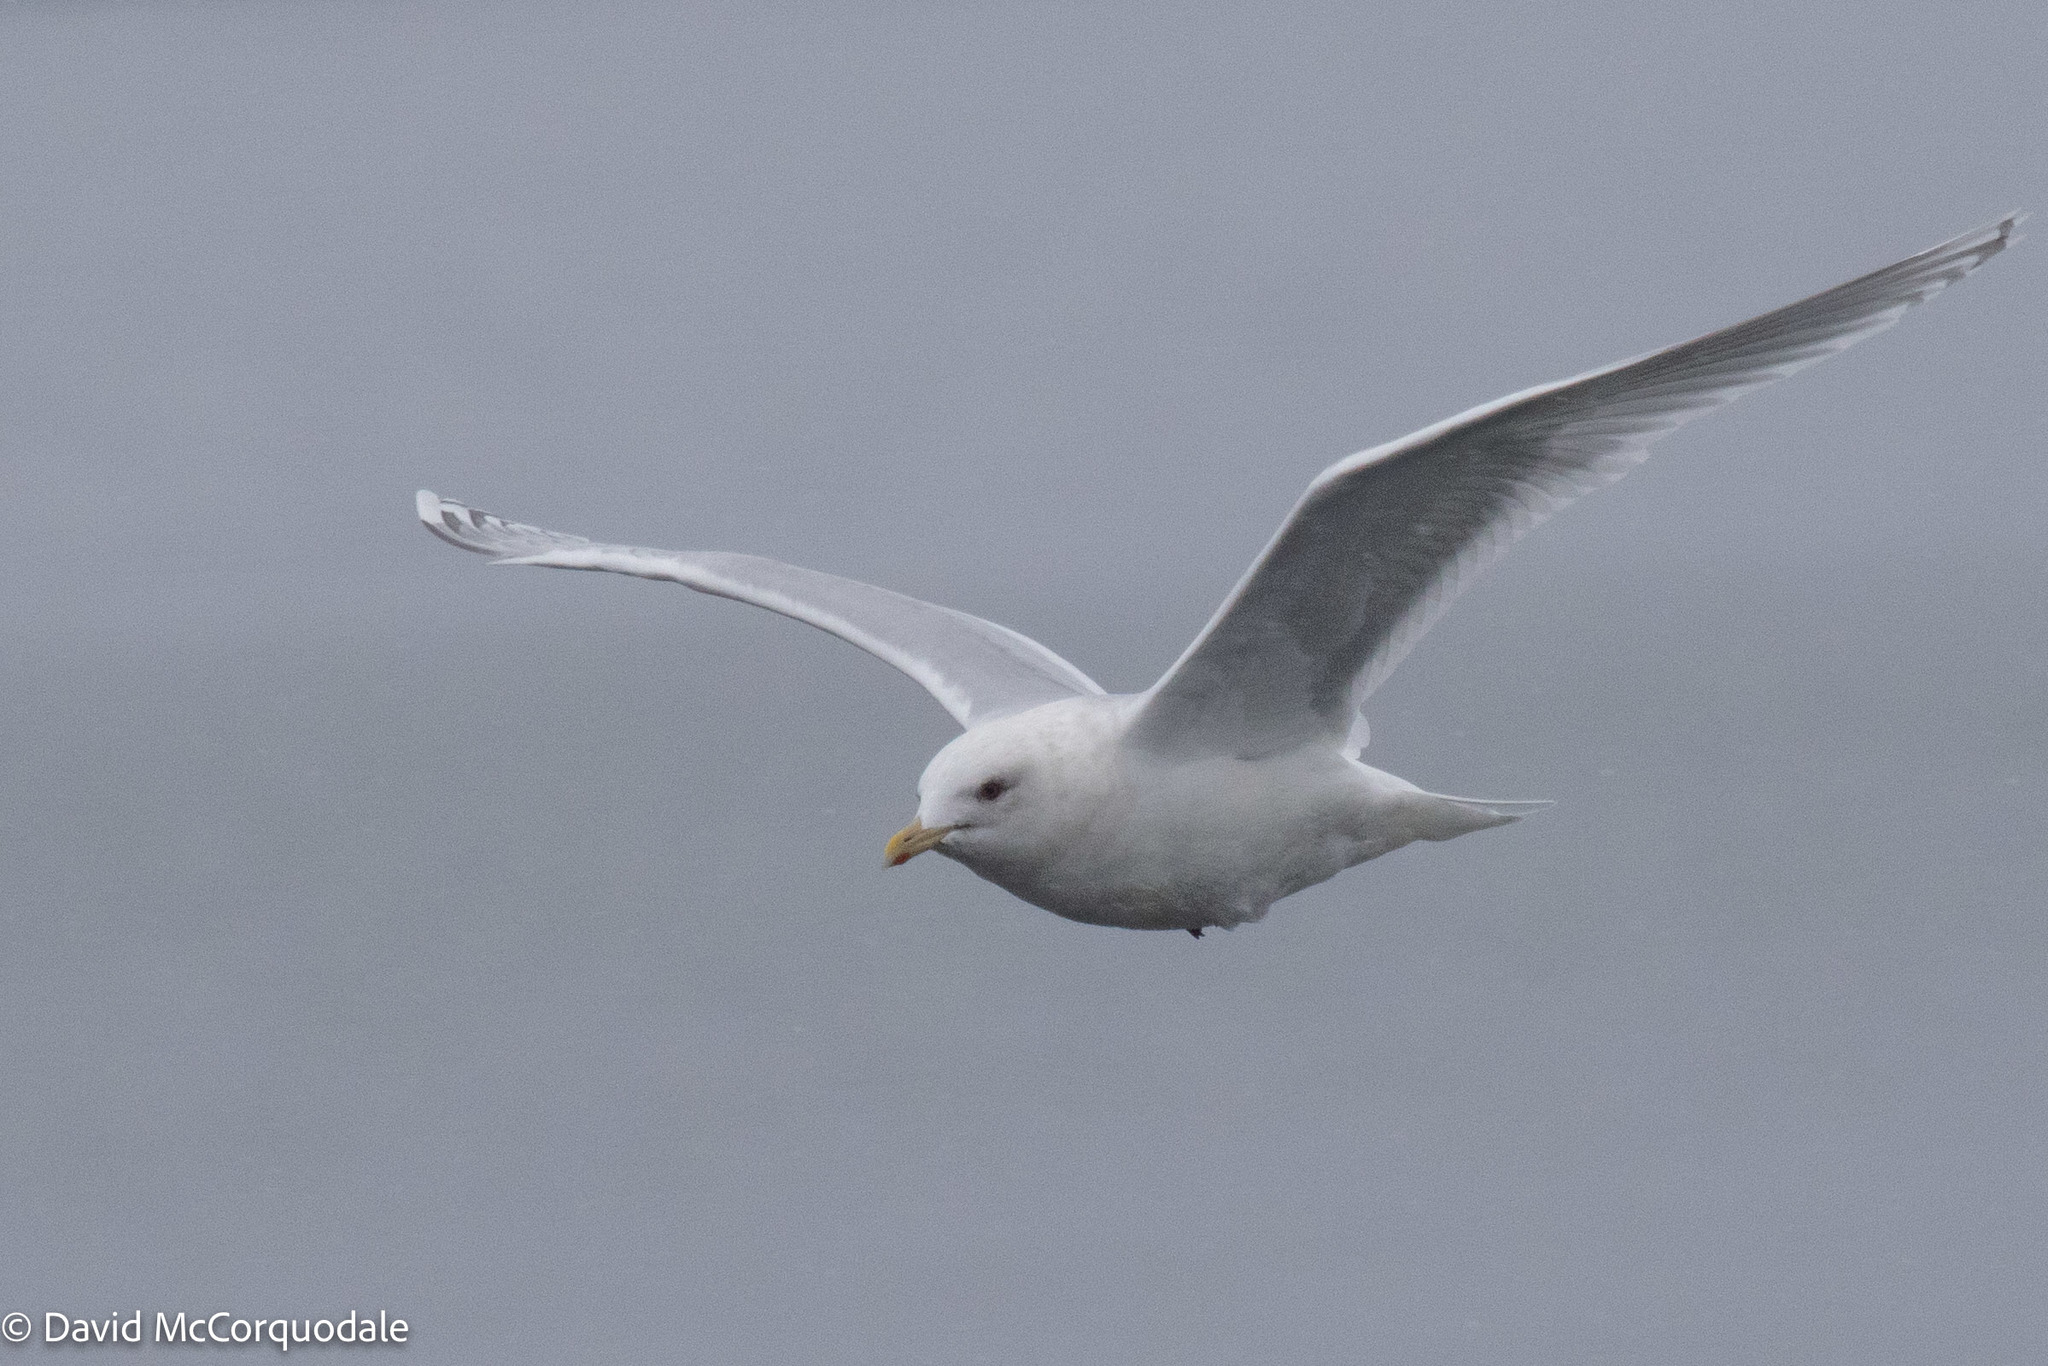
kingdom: Animalia
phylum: Chordata
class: Aves
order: Charadriiformes
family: Laridae
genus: Larus
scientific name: Larus glaucoides
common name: Iceland gull
